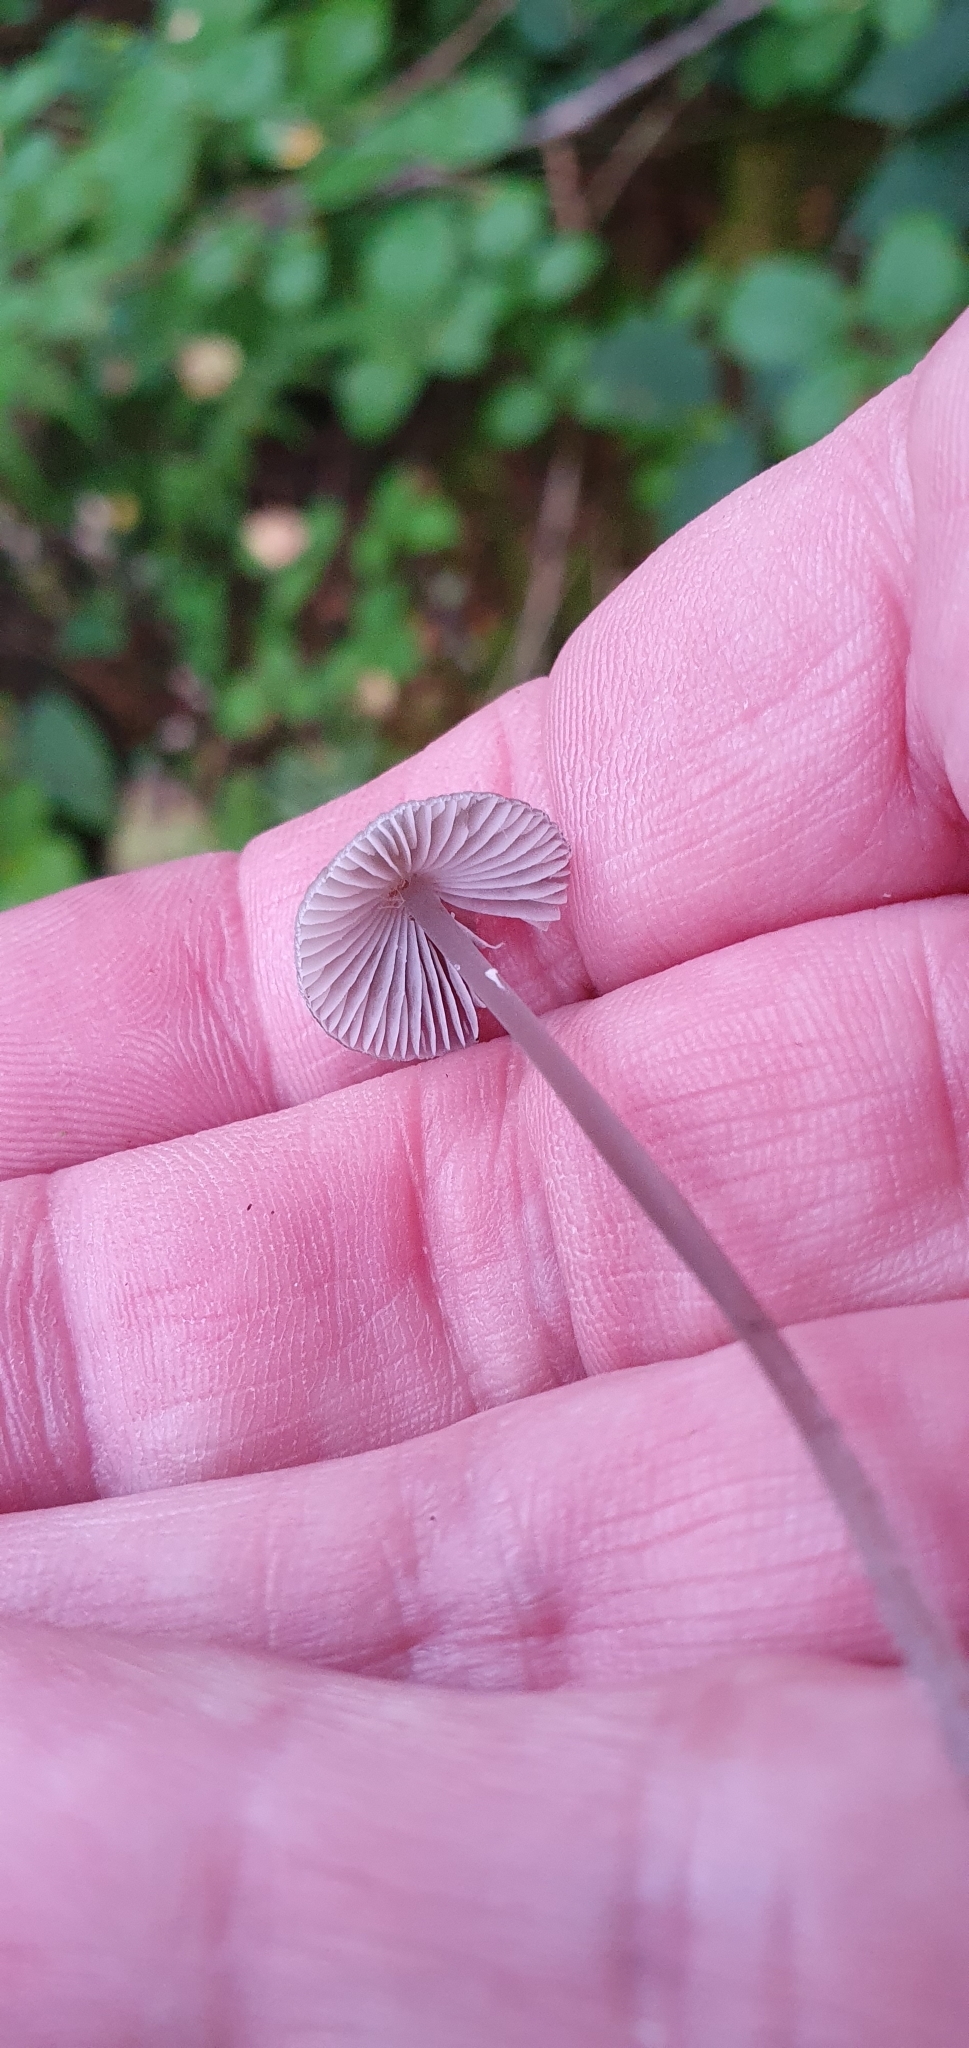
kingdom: Fungi
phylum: Basidiomycota
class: Agaricomycetes
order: Agaricales
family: Mycenaceae
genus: Mycena
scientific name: Mycena galopus
